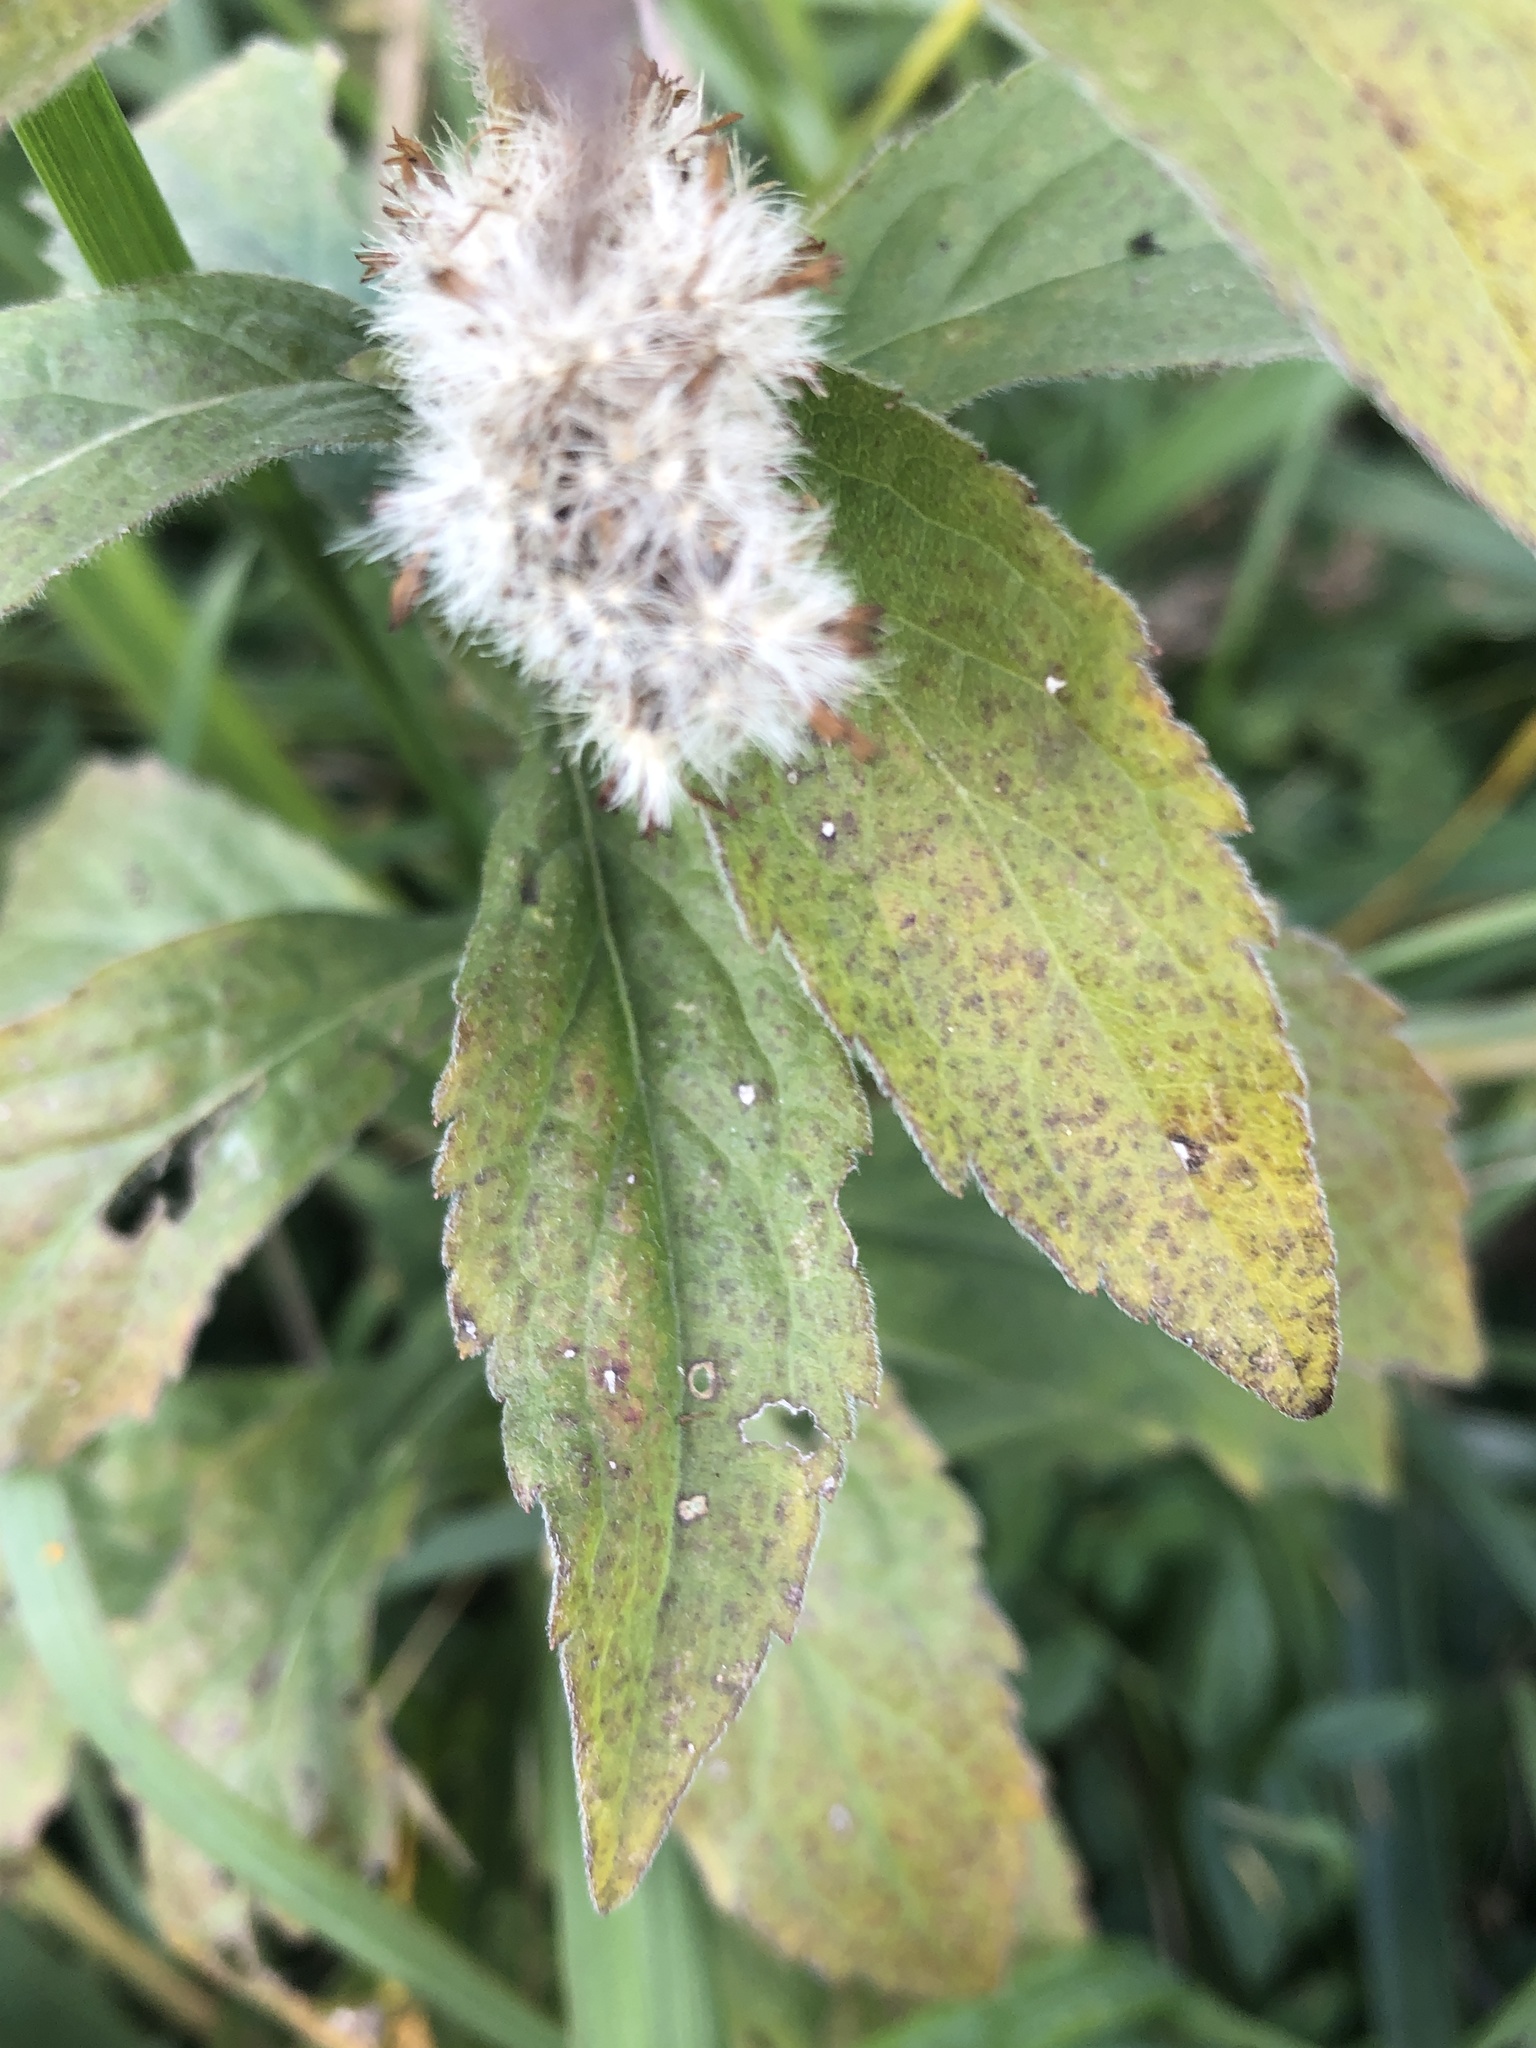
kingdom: Plantae
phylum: Tracheophyta
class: Magnoliopsida
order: Asterales
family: Asteraceae
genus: Solidago
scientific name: Solidago rugosa
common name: Rough-stemmed goldenrod
